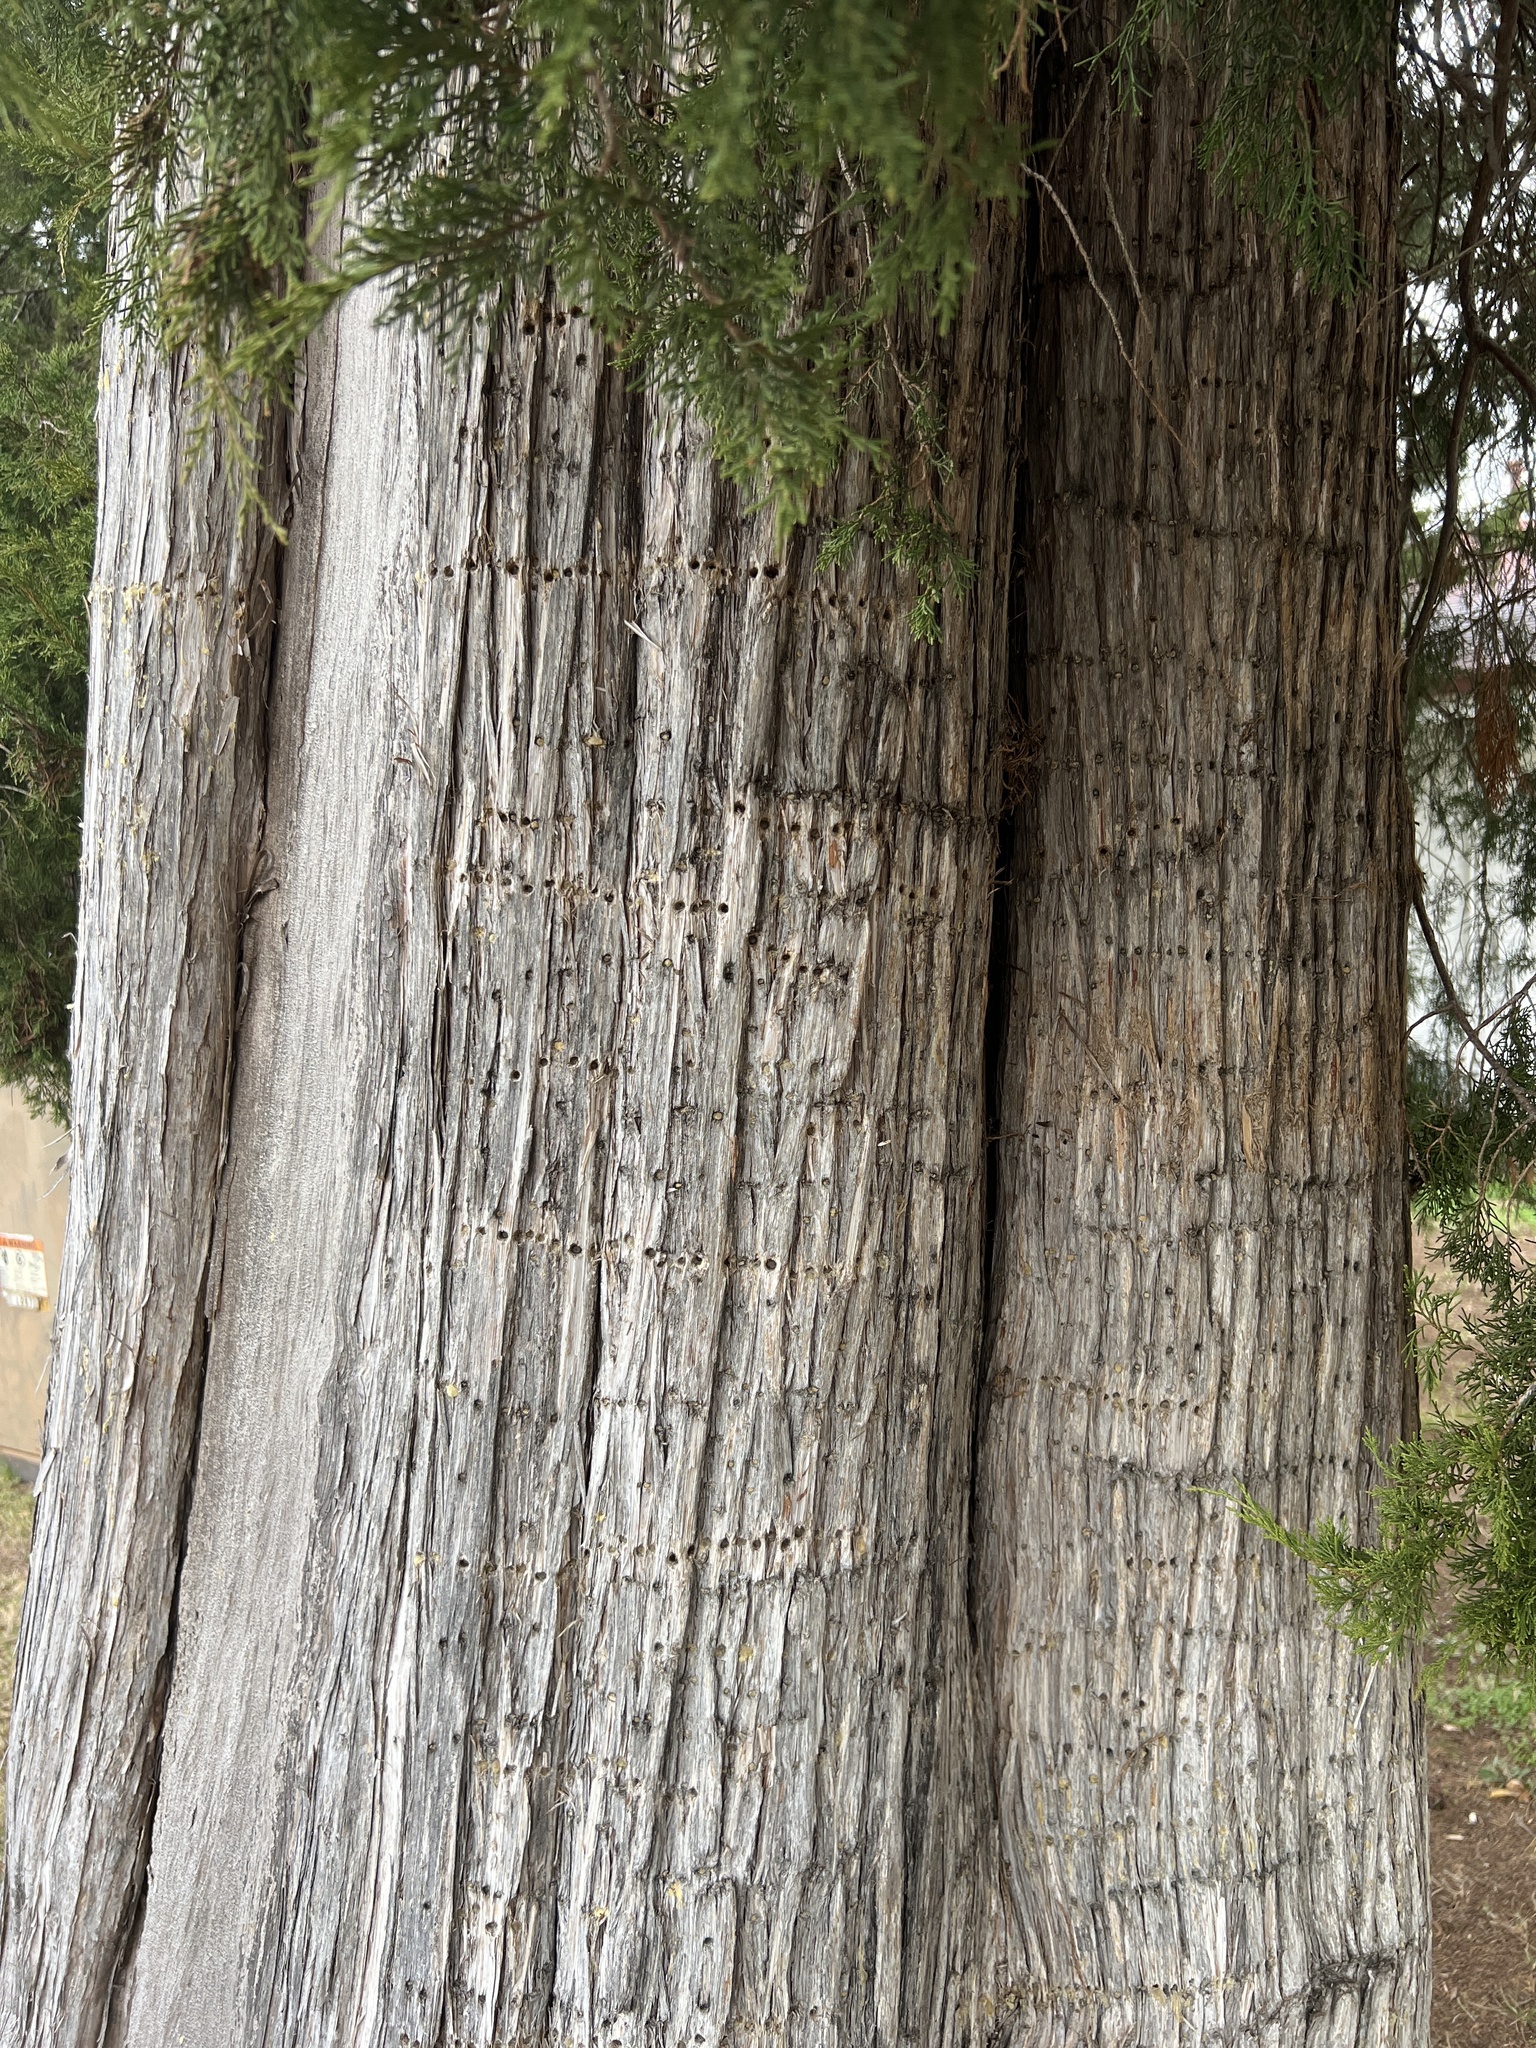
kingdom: Animalia
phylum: Chordata
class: Aves
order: Piciformes
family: Picidae
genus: Sphyrapicus
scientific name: Sphyrapicus varius
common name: Yellow-bellied sapsucker
